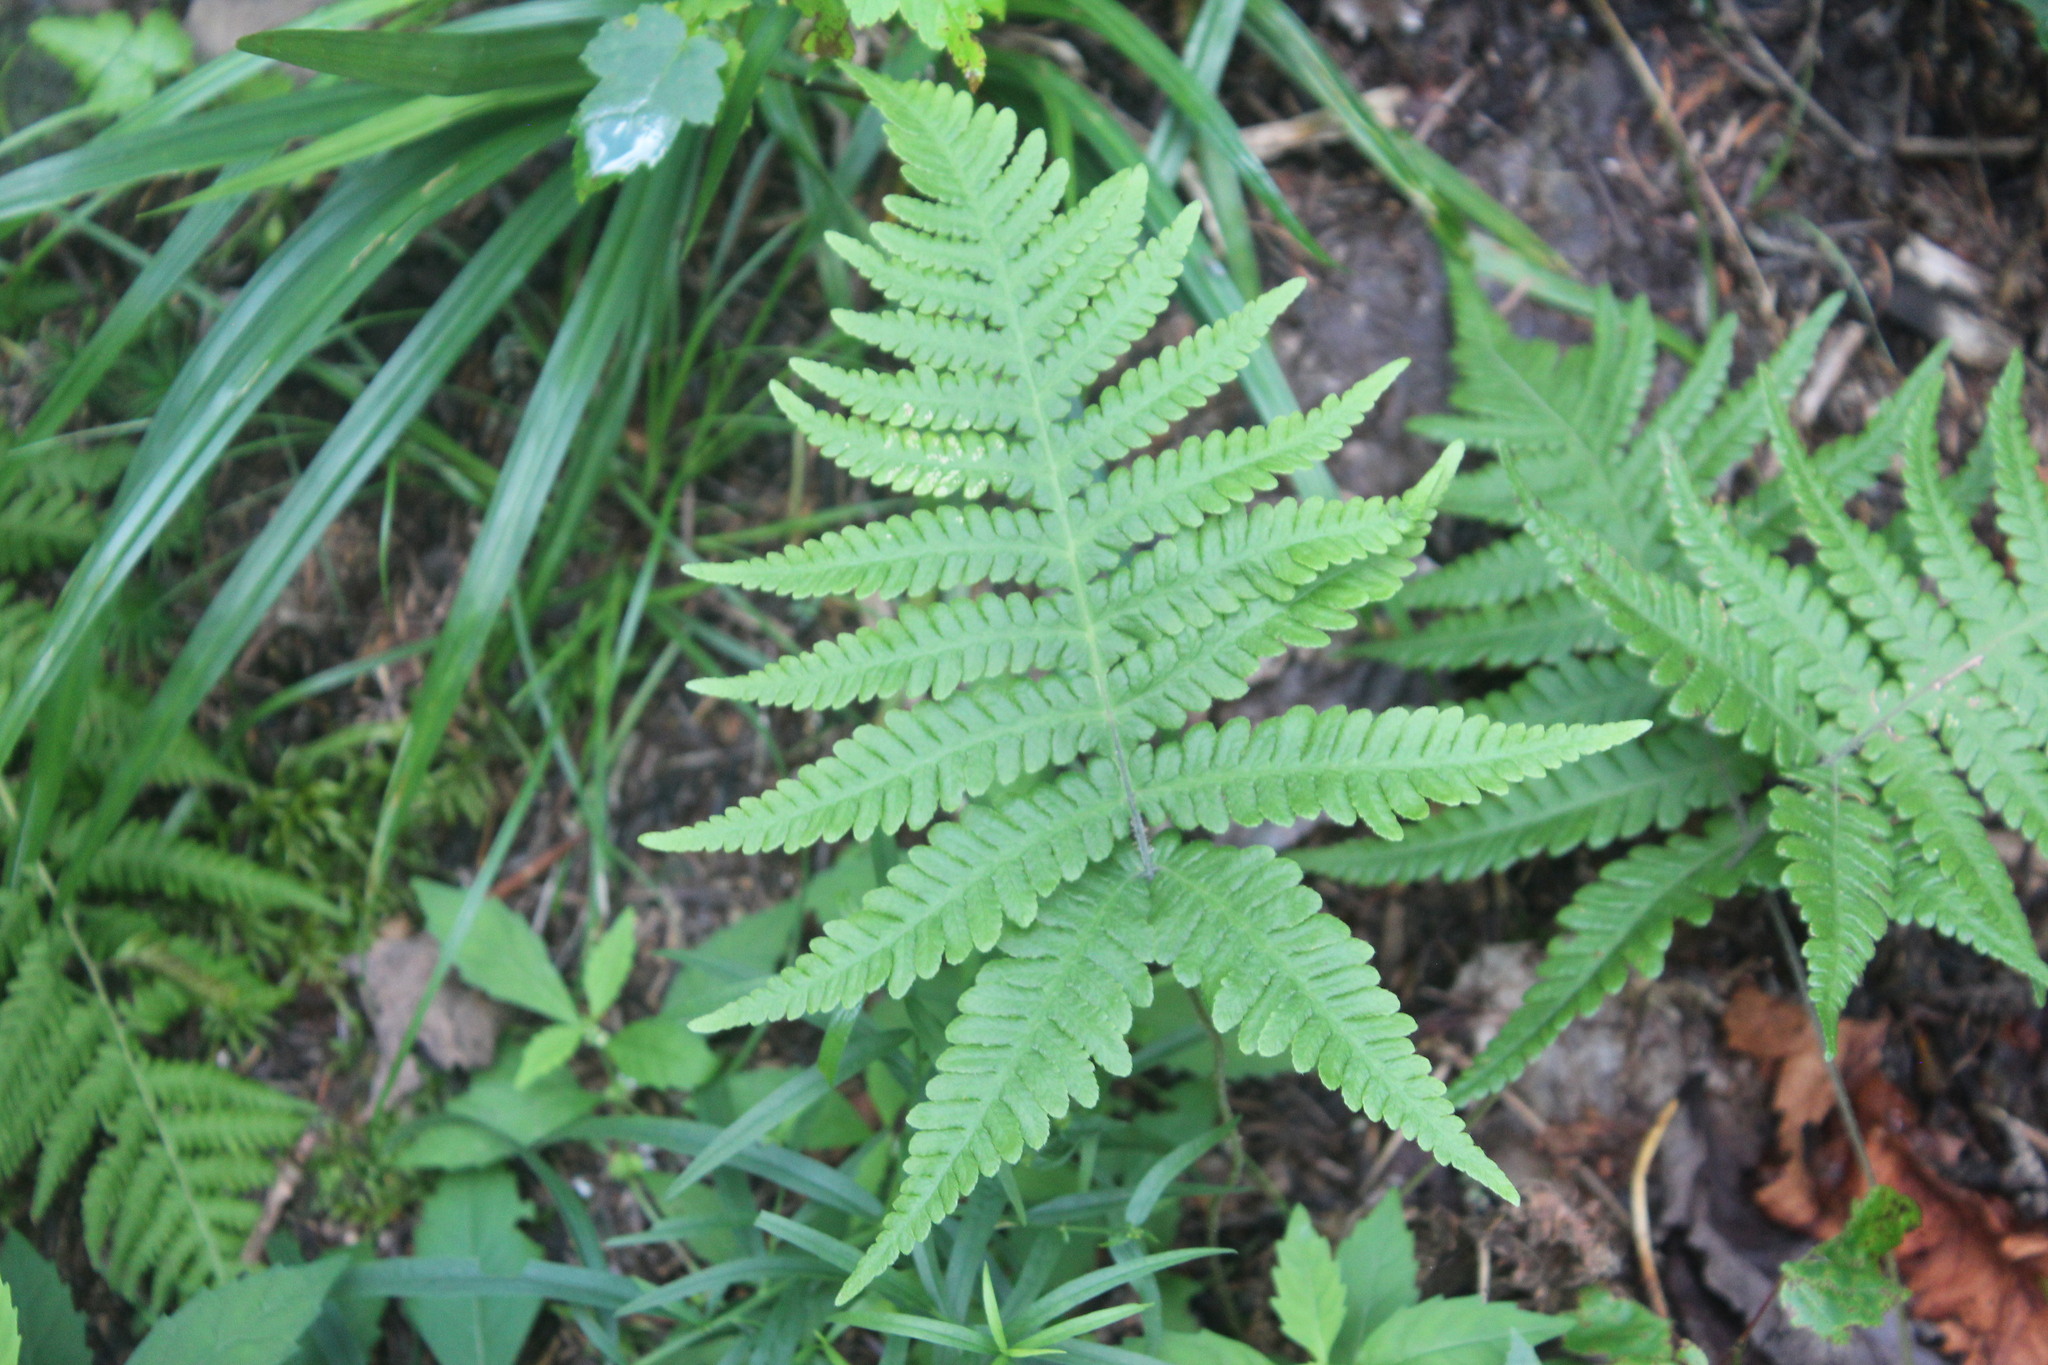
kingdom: Plantae
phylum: Tracheophyta
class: Polypodiopsida
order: Polypodiales
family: Thelypteridaceae
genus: Phegopteris
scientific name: Phegopteris connectilis
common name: Beech fern
